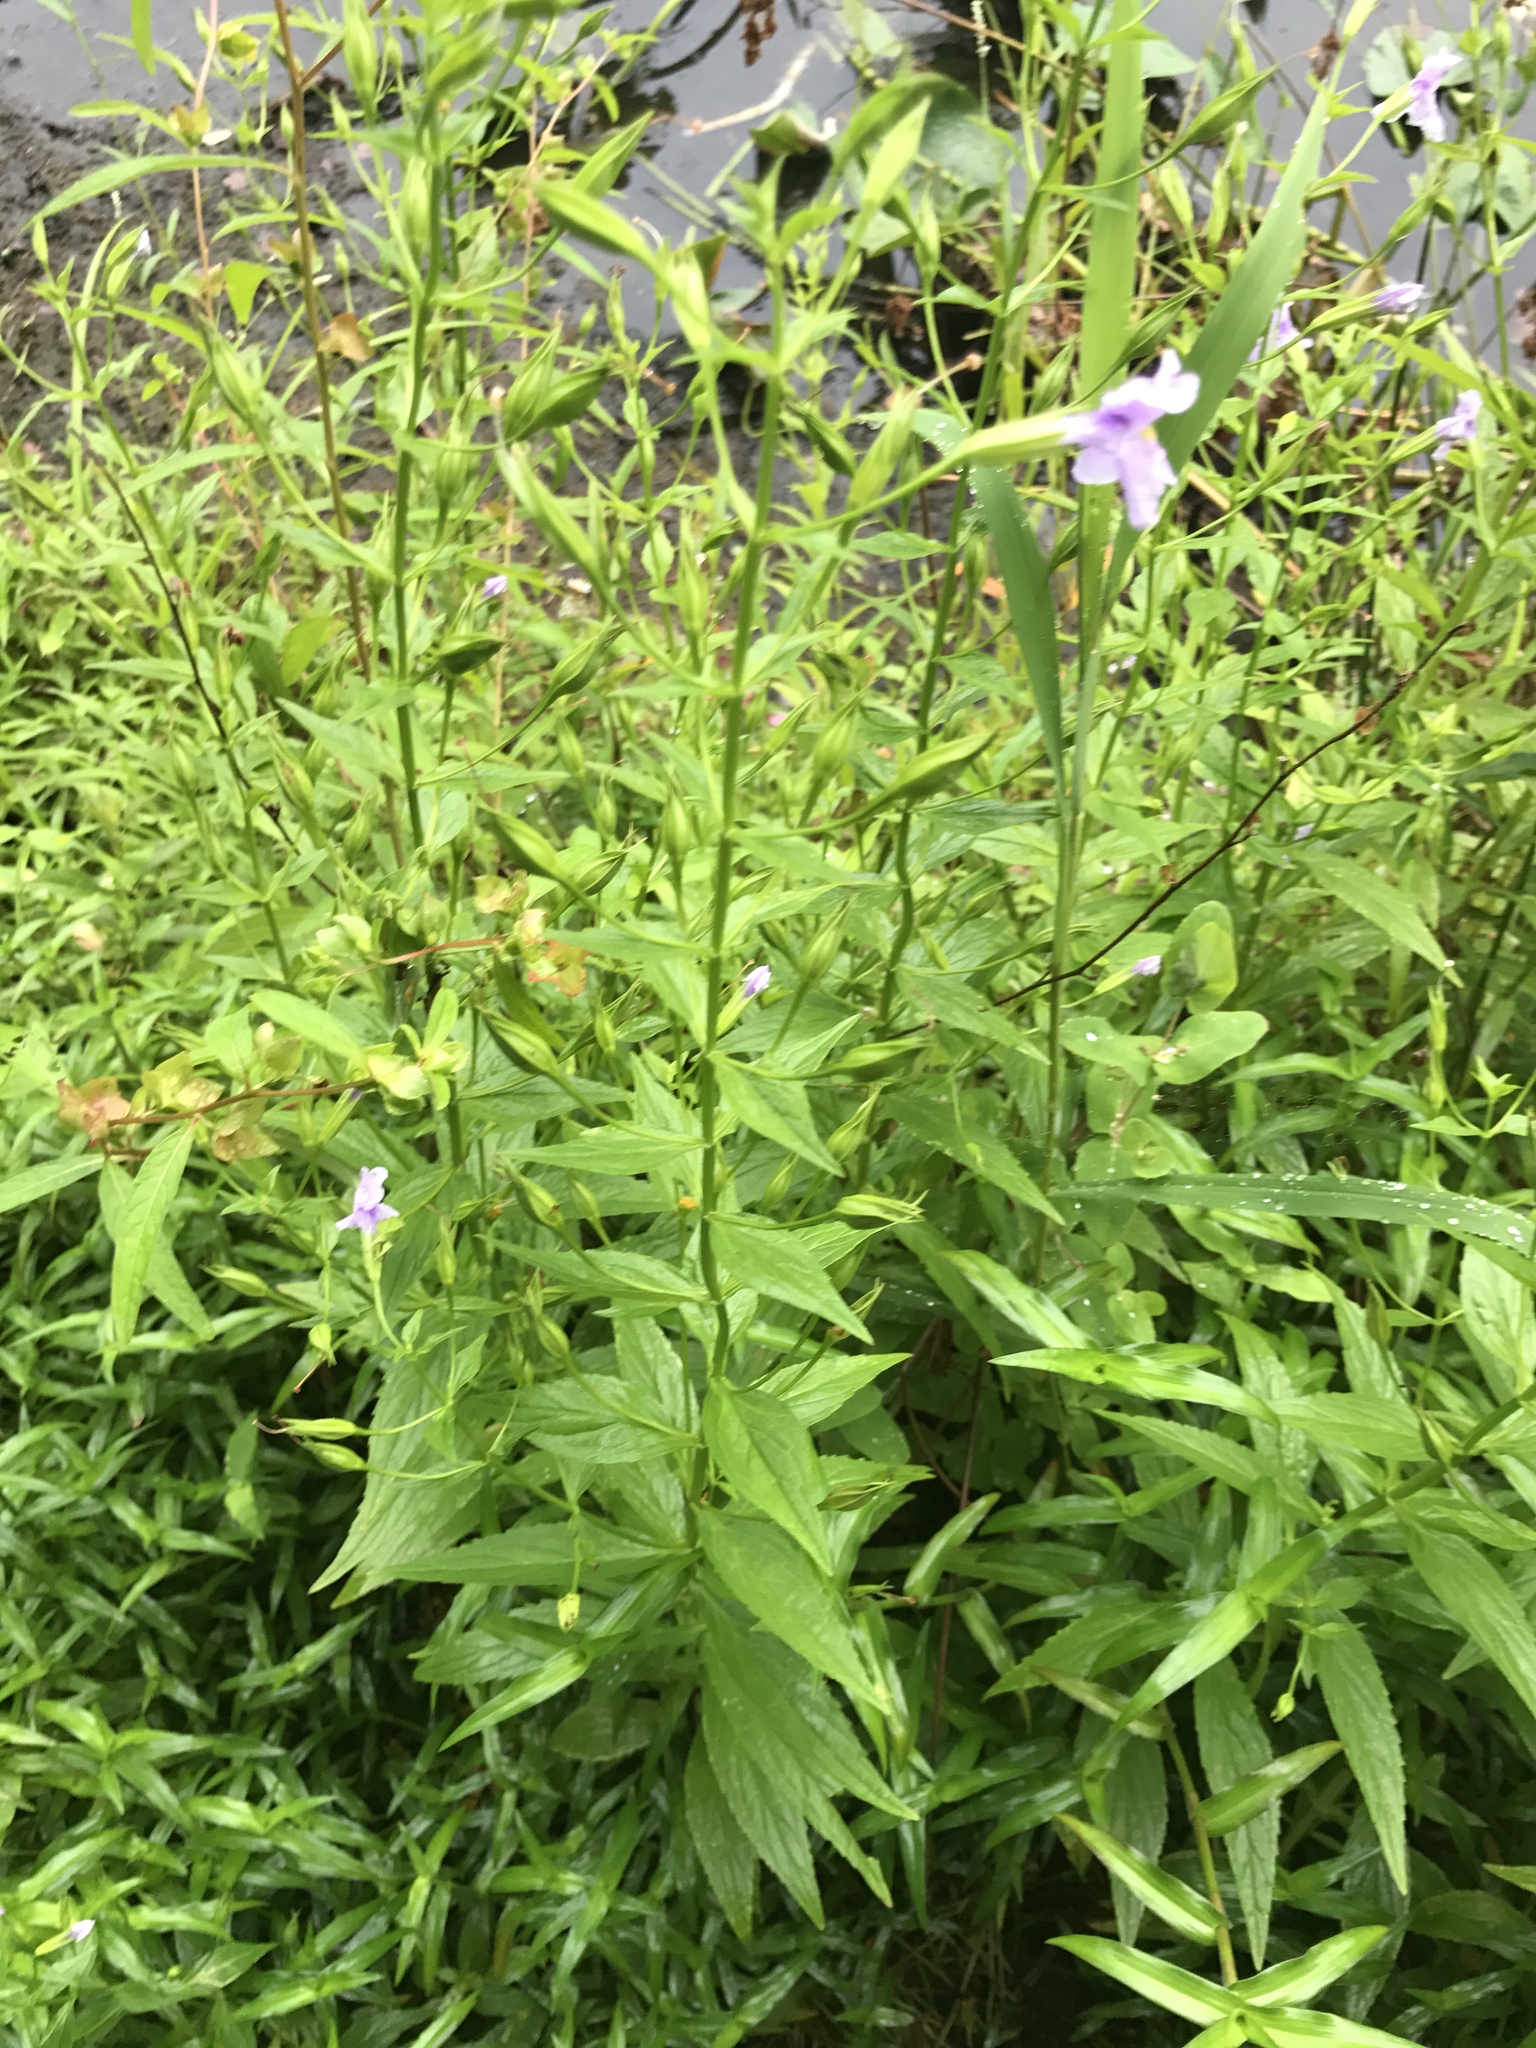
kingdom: Plantae
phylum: Tracheophyta
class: Magnoliopsida
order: Lamiales
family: Phrymaceae
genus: Mimulus
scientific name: Mimulus ringens
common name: Allegheny monkeyflower
